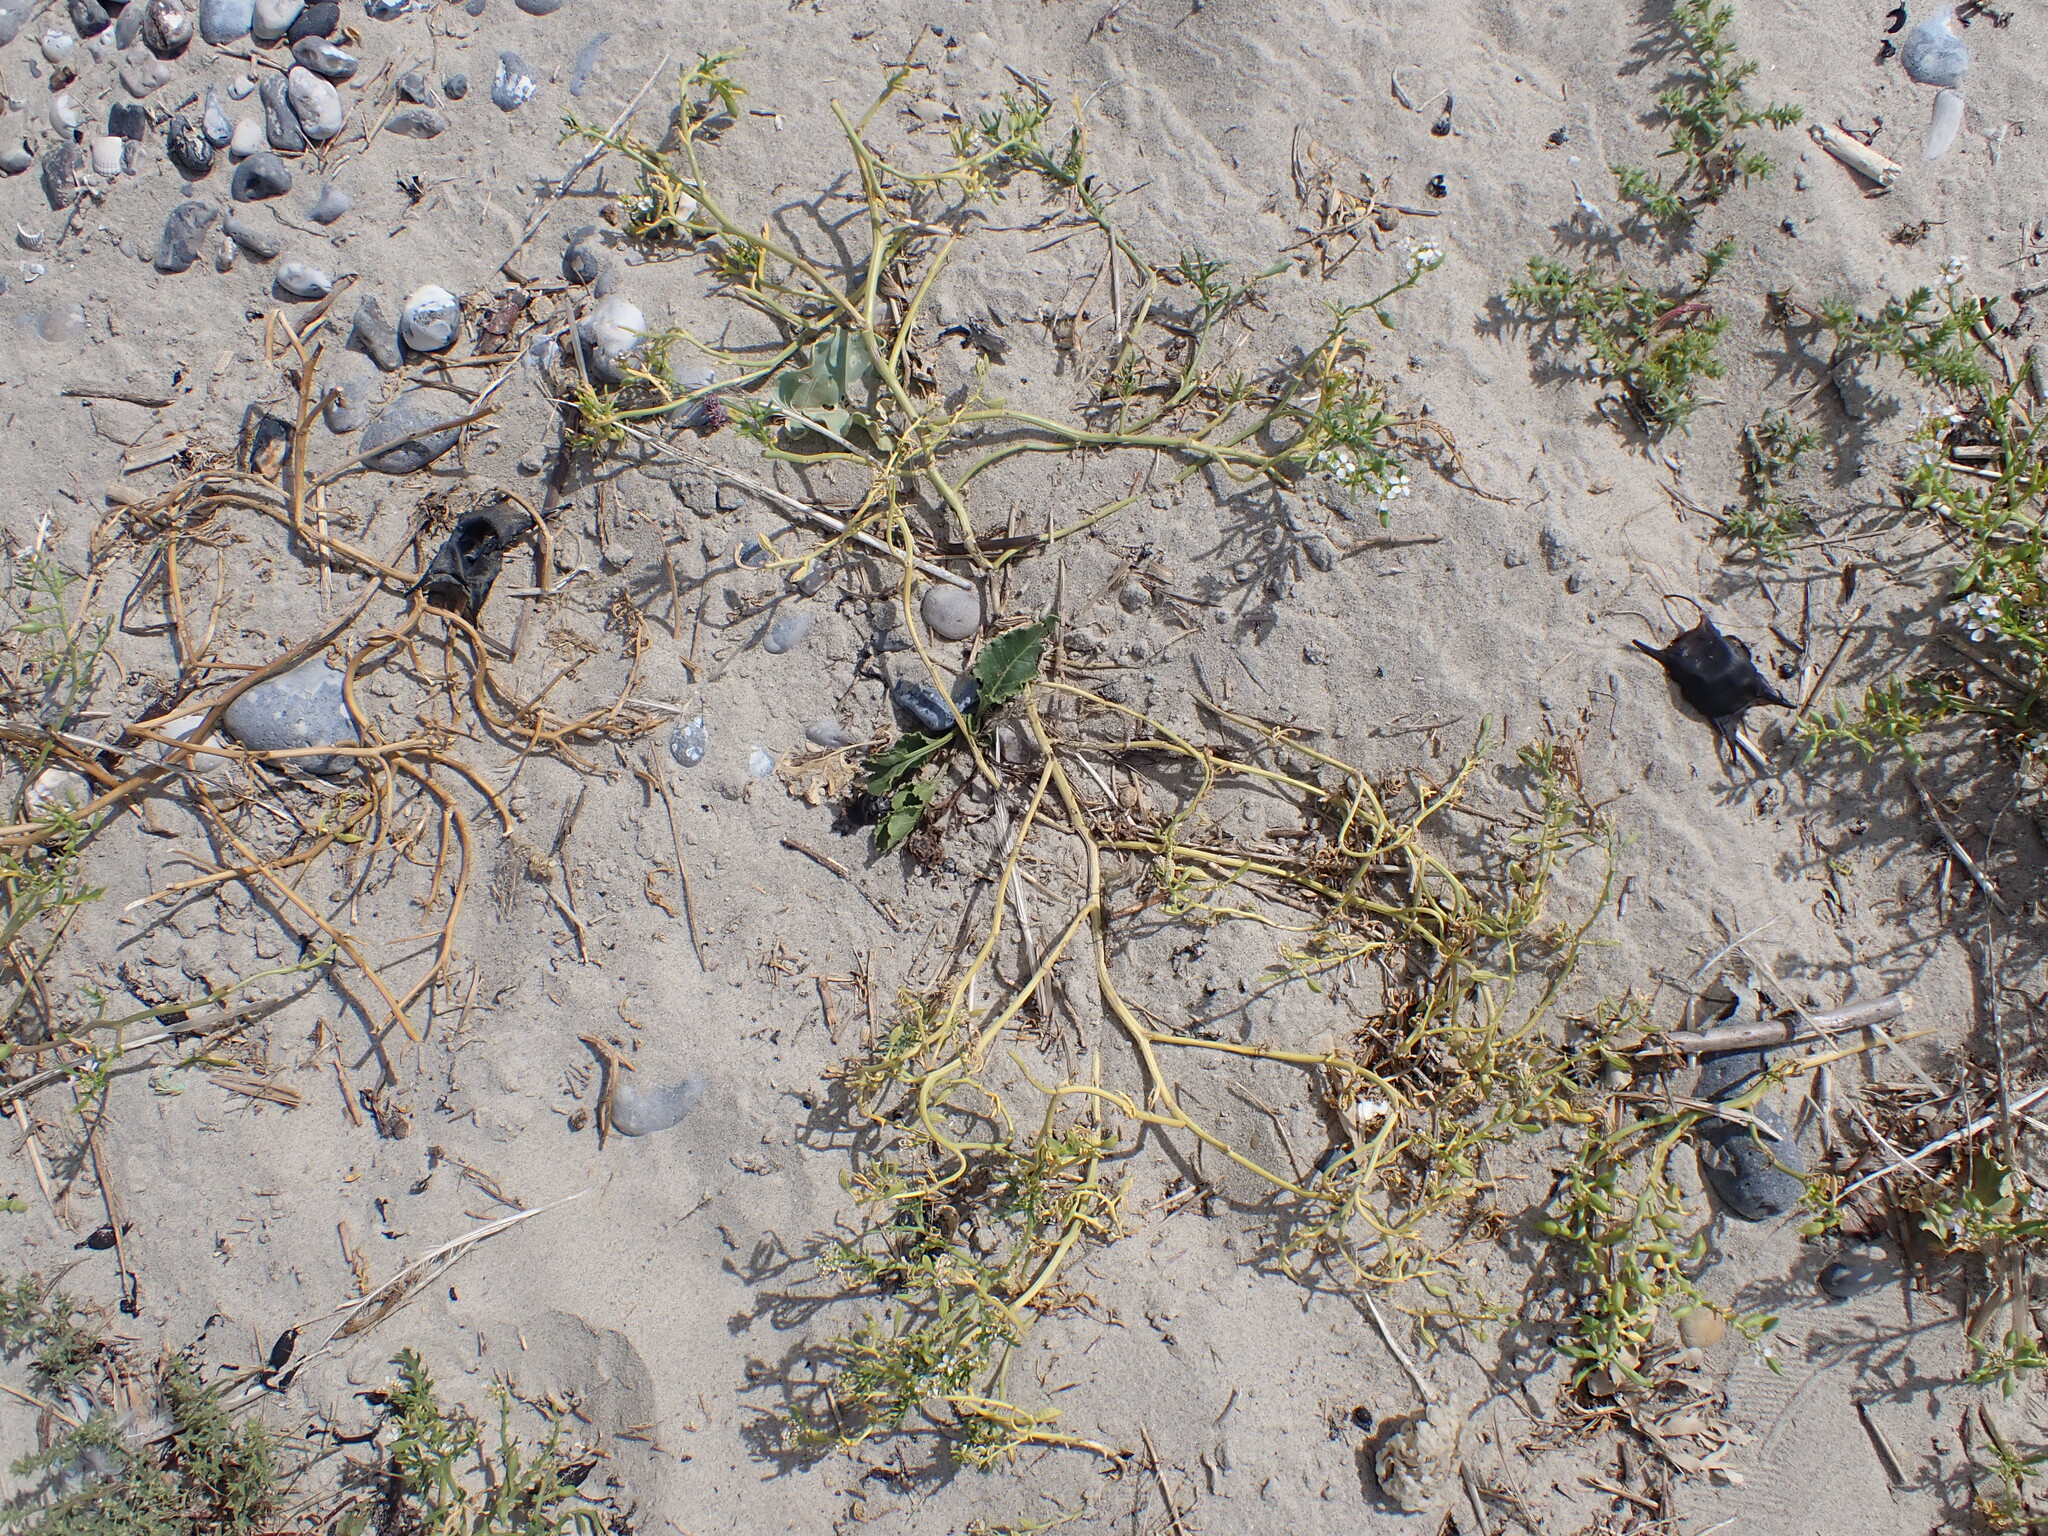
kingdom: Plantae
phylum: Tracheophyta
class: Magnoliopsida
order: Brassicales
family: Brassicaceae
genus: Cakile
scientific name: Cakile maritima
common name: Sea rocket
